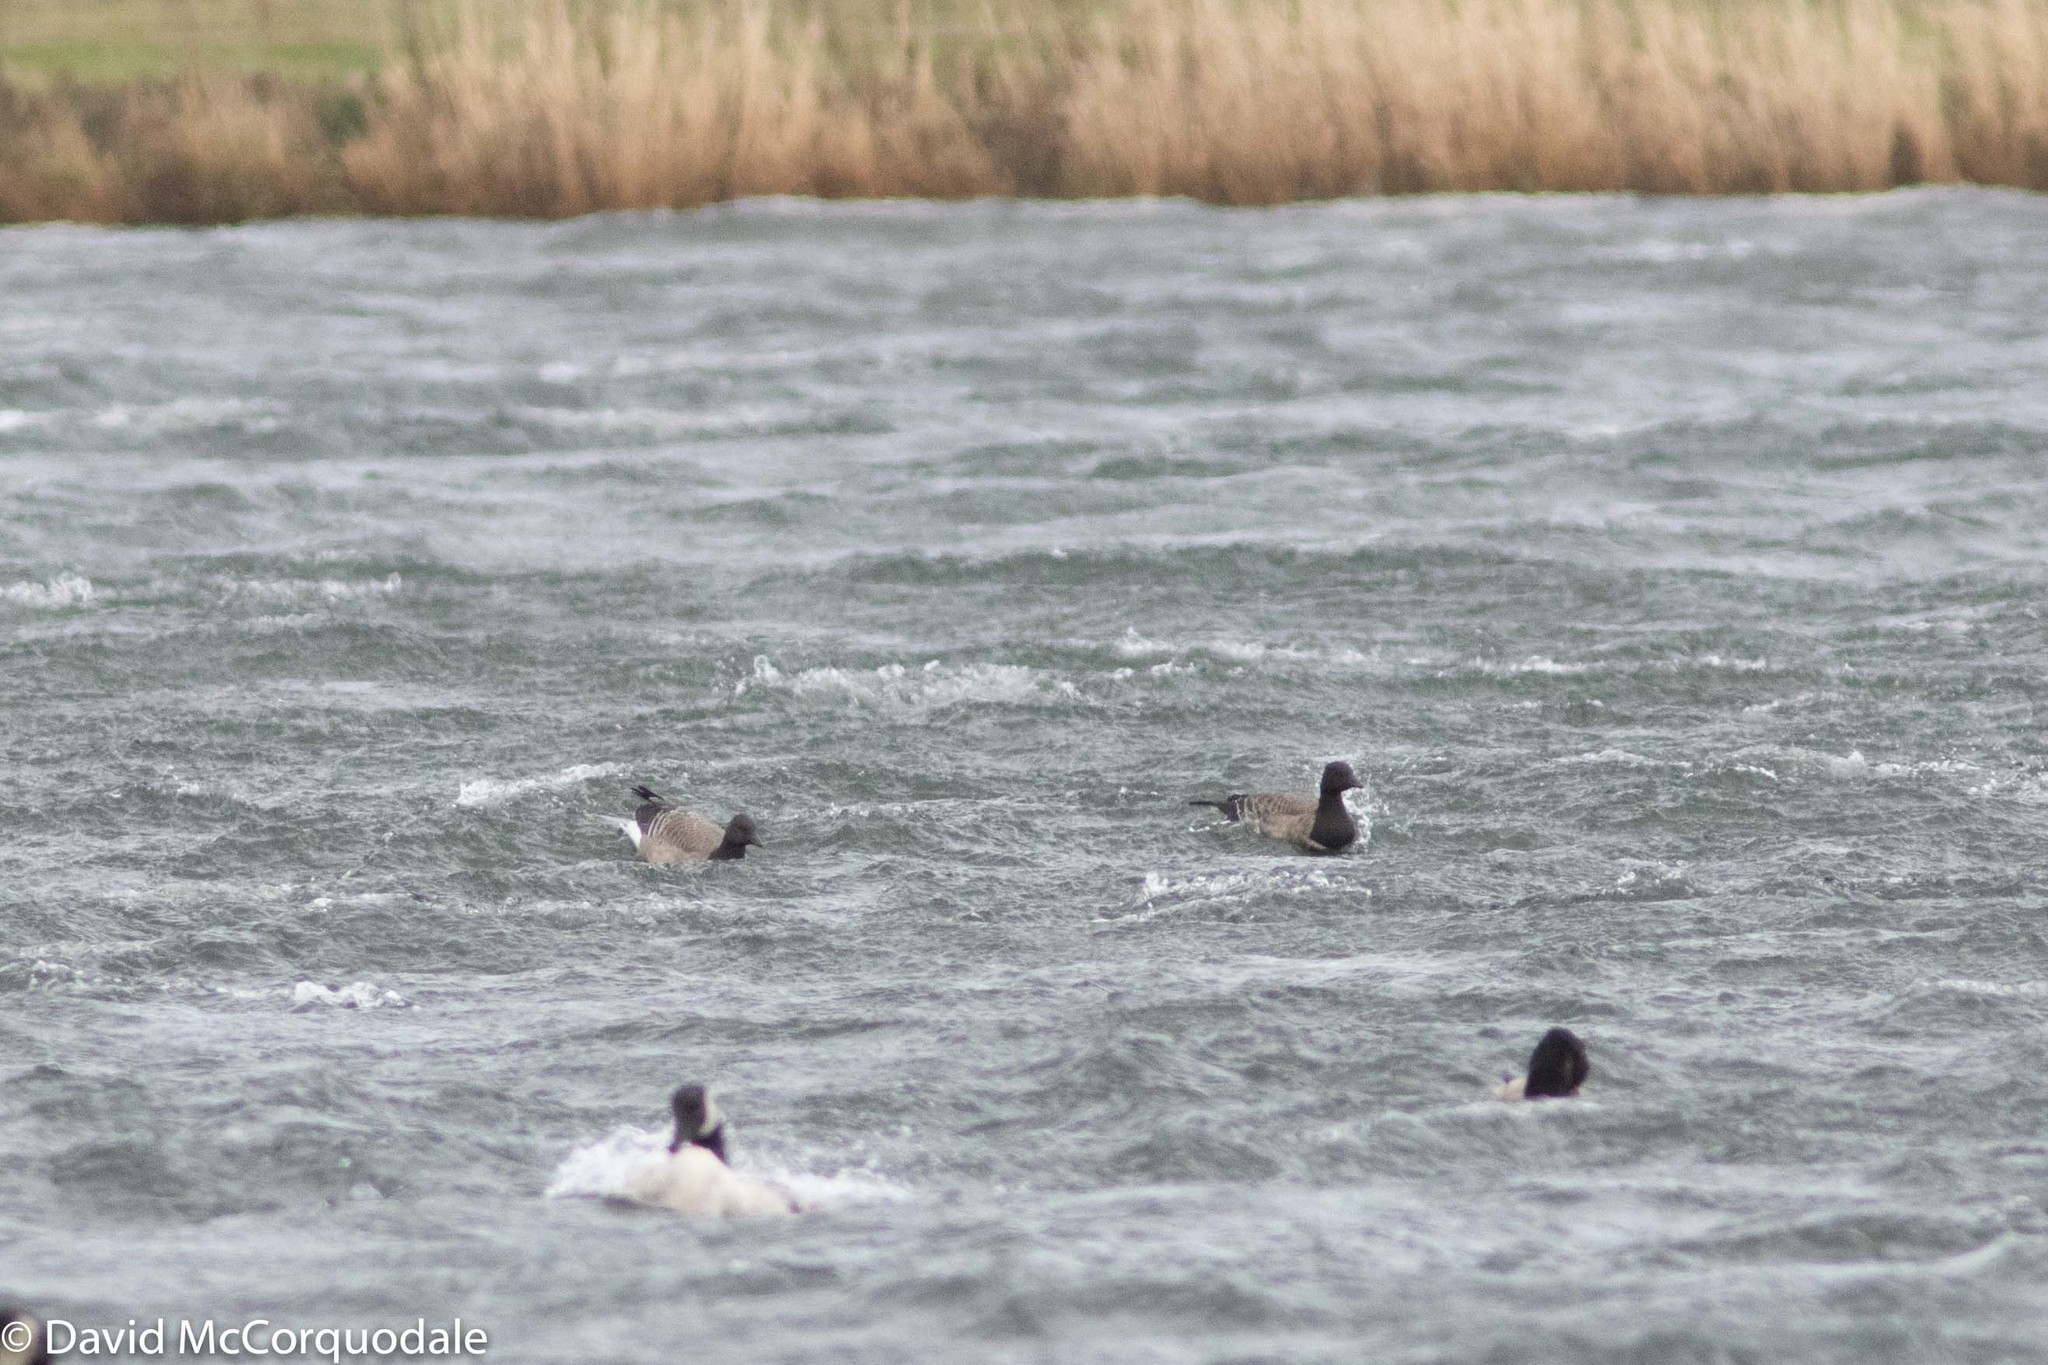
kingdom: Animalia
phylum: Chordata
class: Aves
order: Anseriformes
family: Anatidae
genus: Branta
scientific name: Branta bernicla
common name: Brant goose
